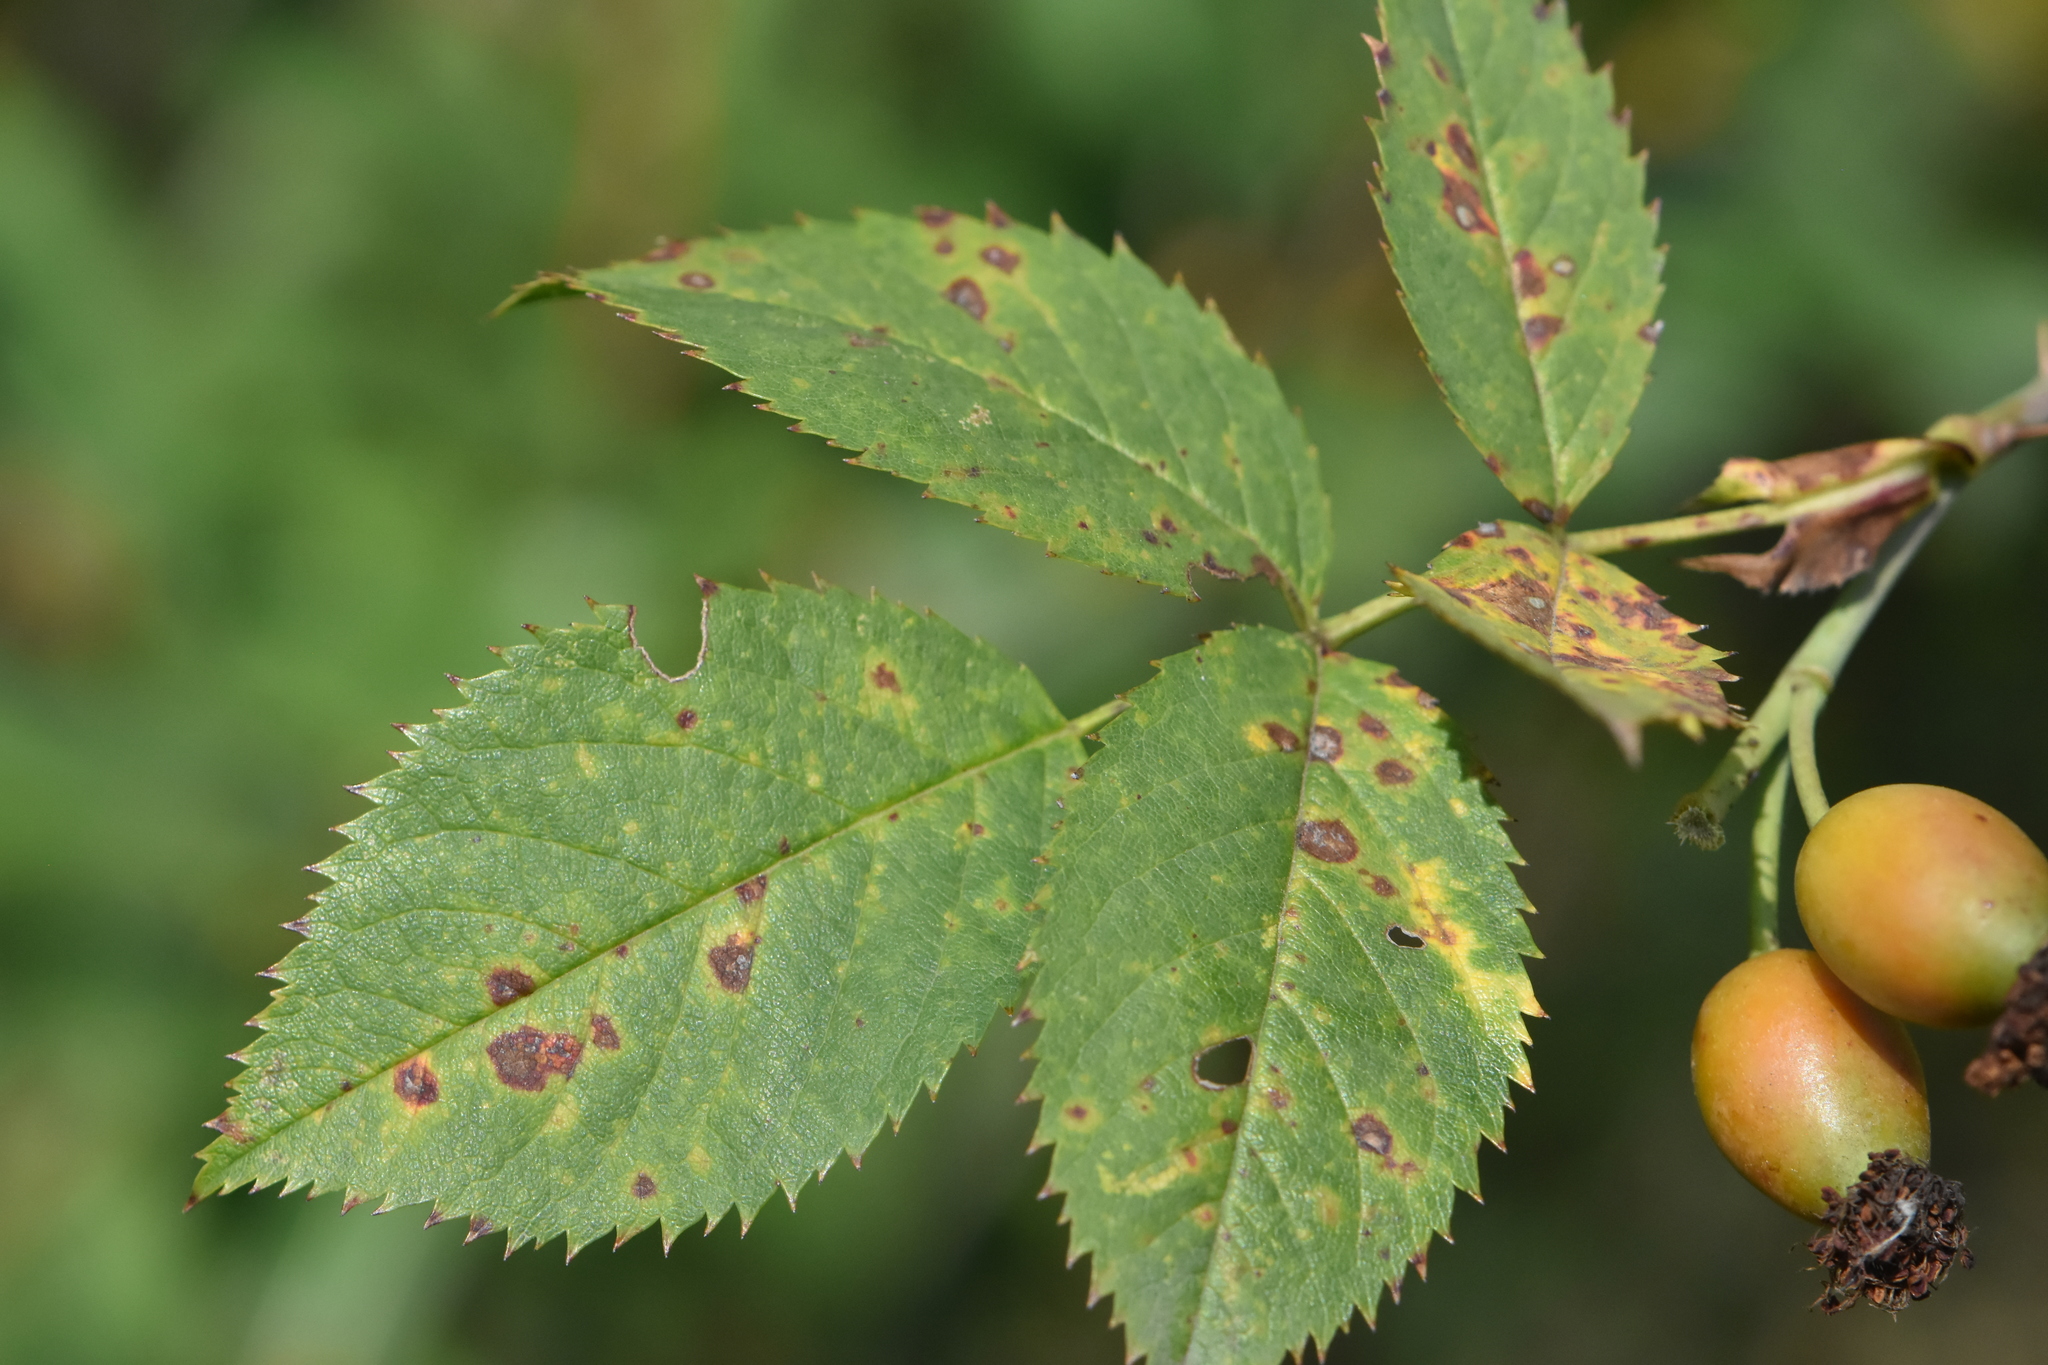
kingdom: Plantae
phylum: Tracheophyta
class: Magnoliopsida
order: Rosales
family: Rosaceae
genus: Rosa
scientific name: Rosa canina
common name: Dog rose
